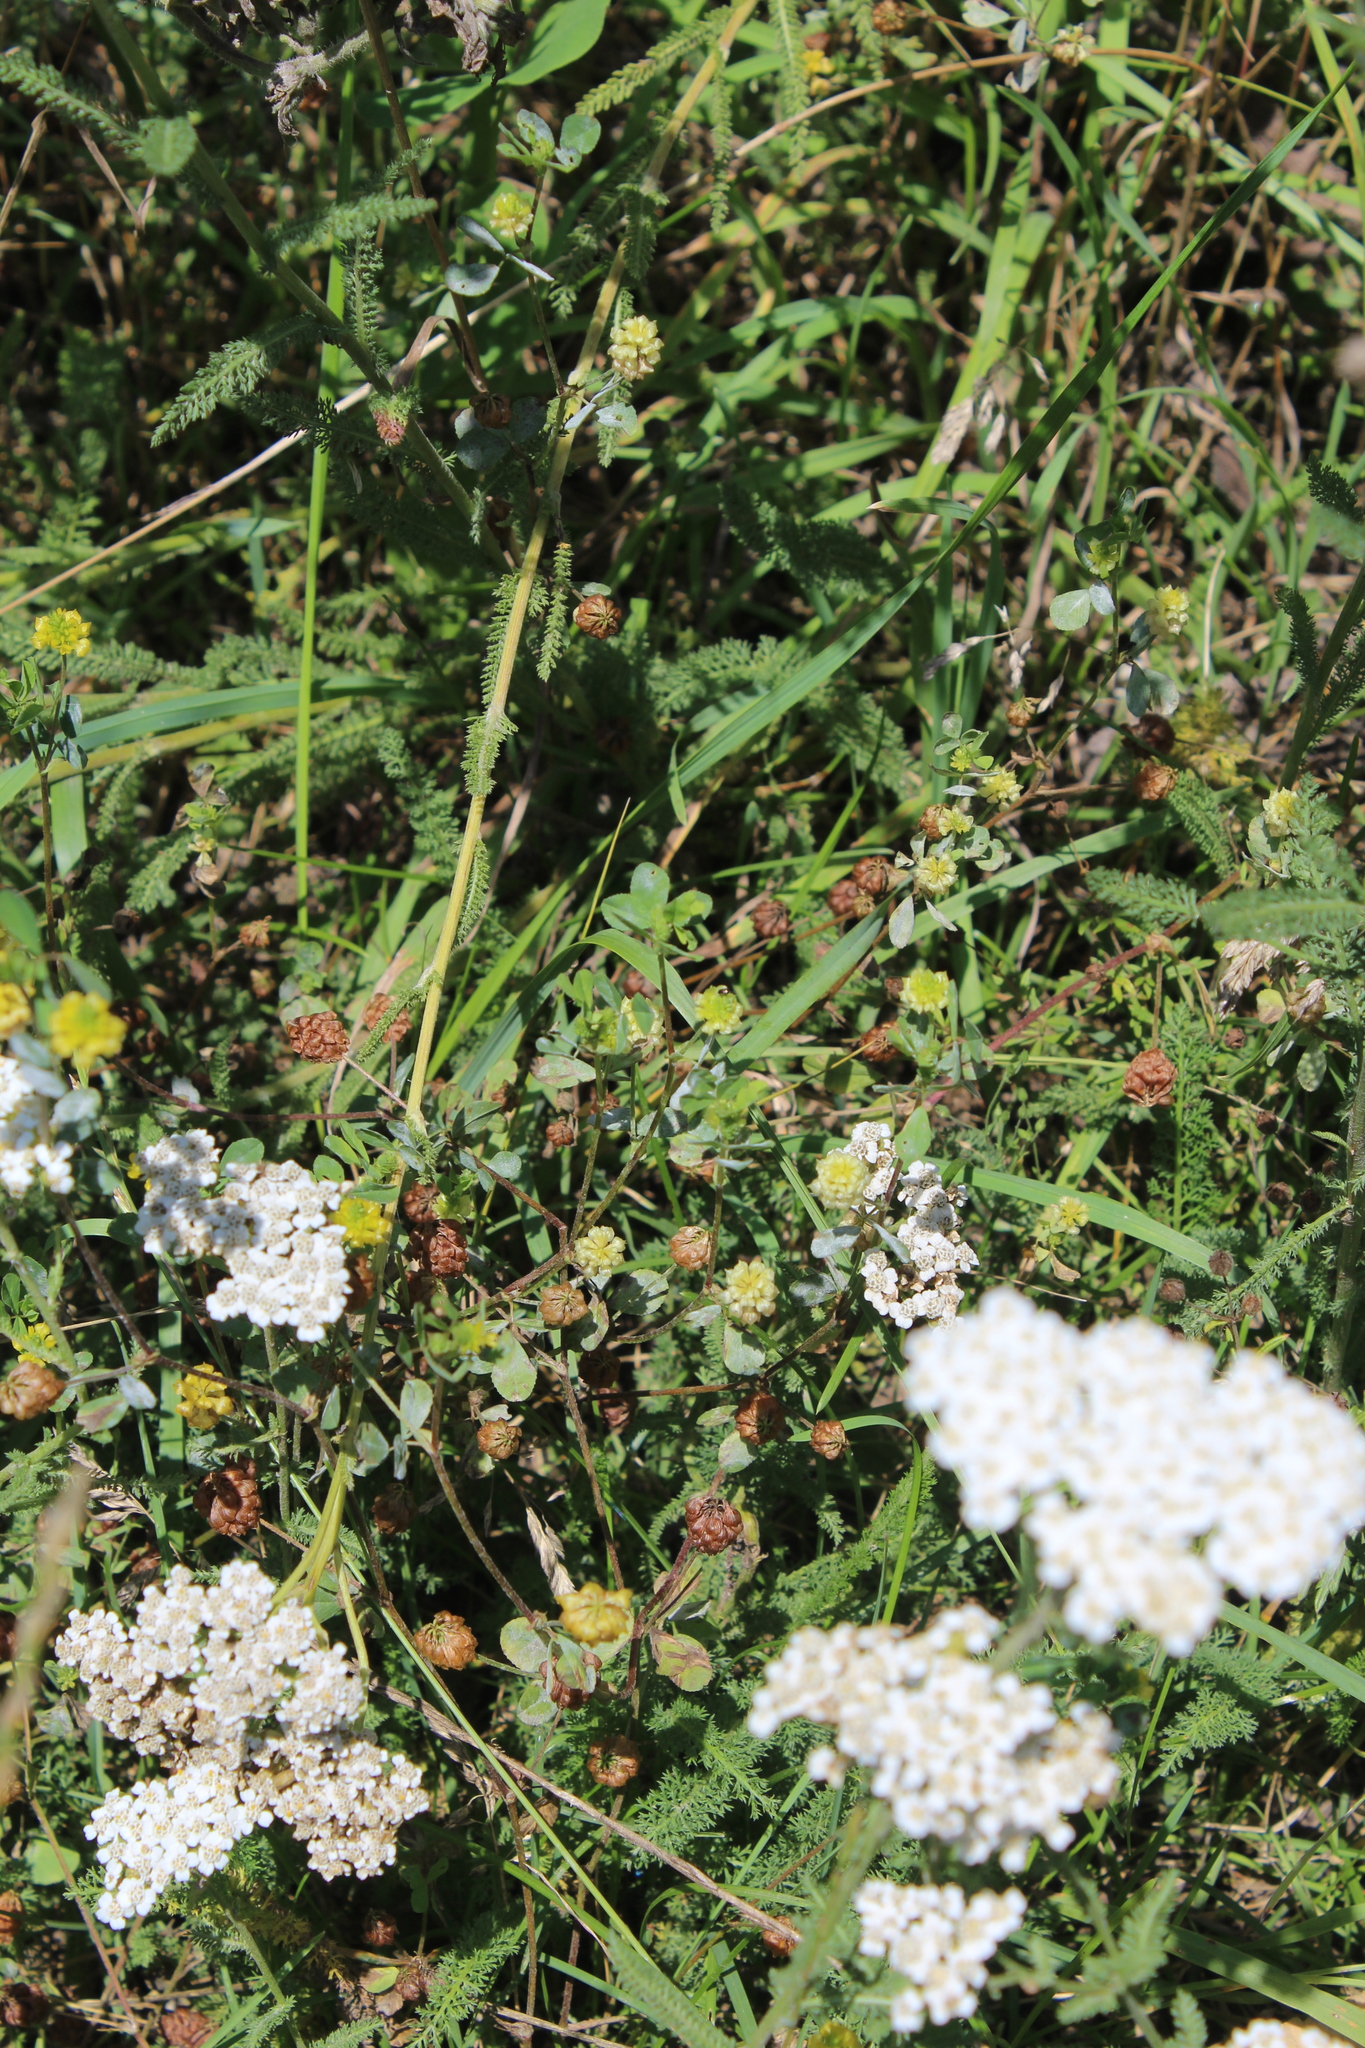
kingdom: Plantae
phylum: Tracheophyta
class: Magnoliopsida
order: Fabales
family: Fabaceae
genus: Trifolium
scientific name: Trifolium campestre
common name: Field clover
